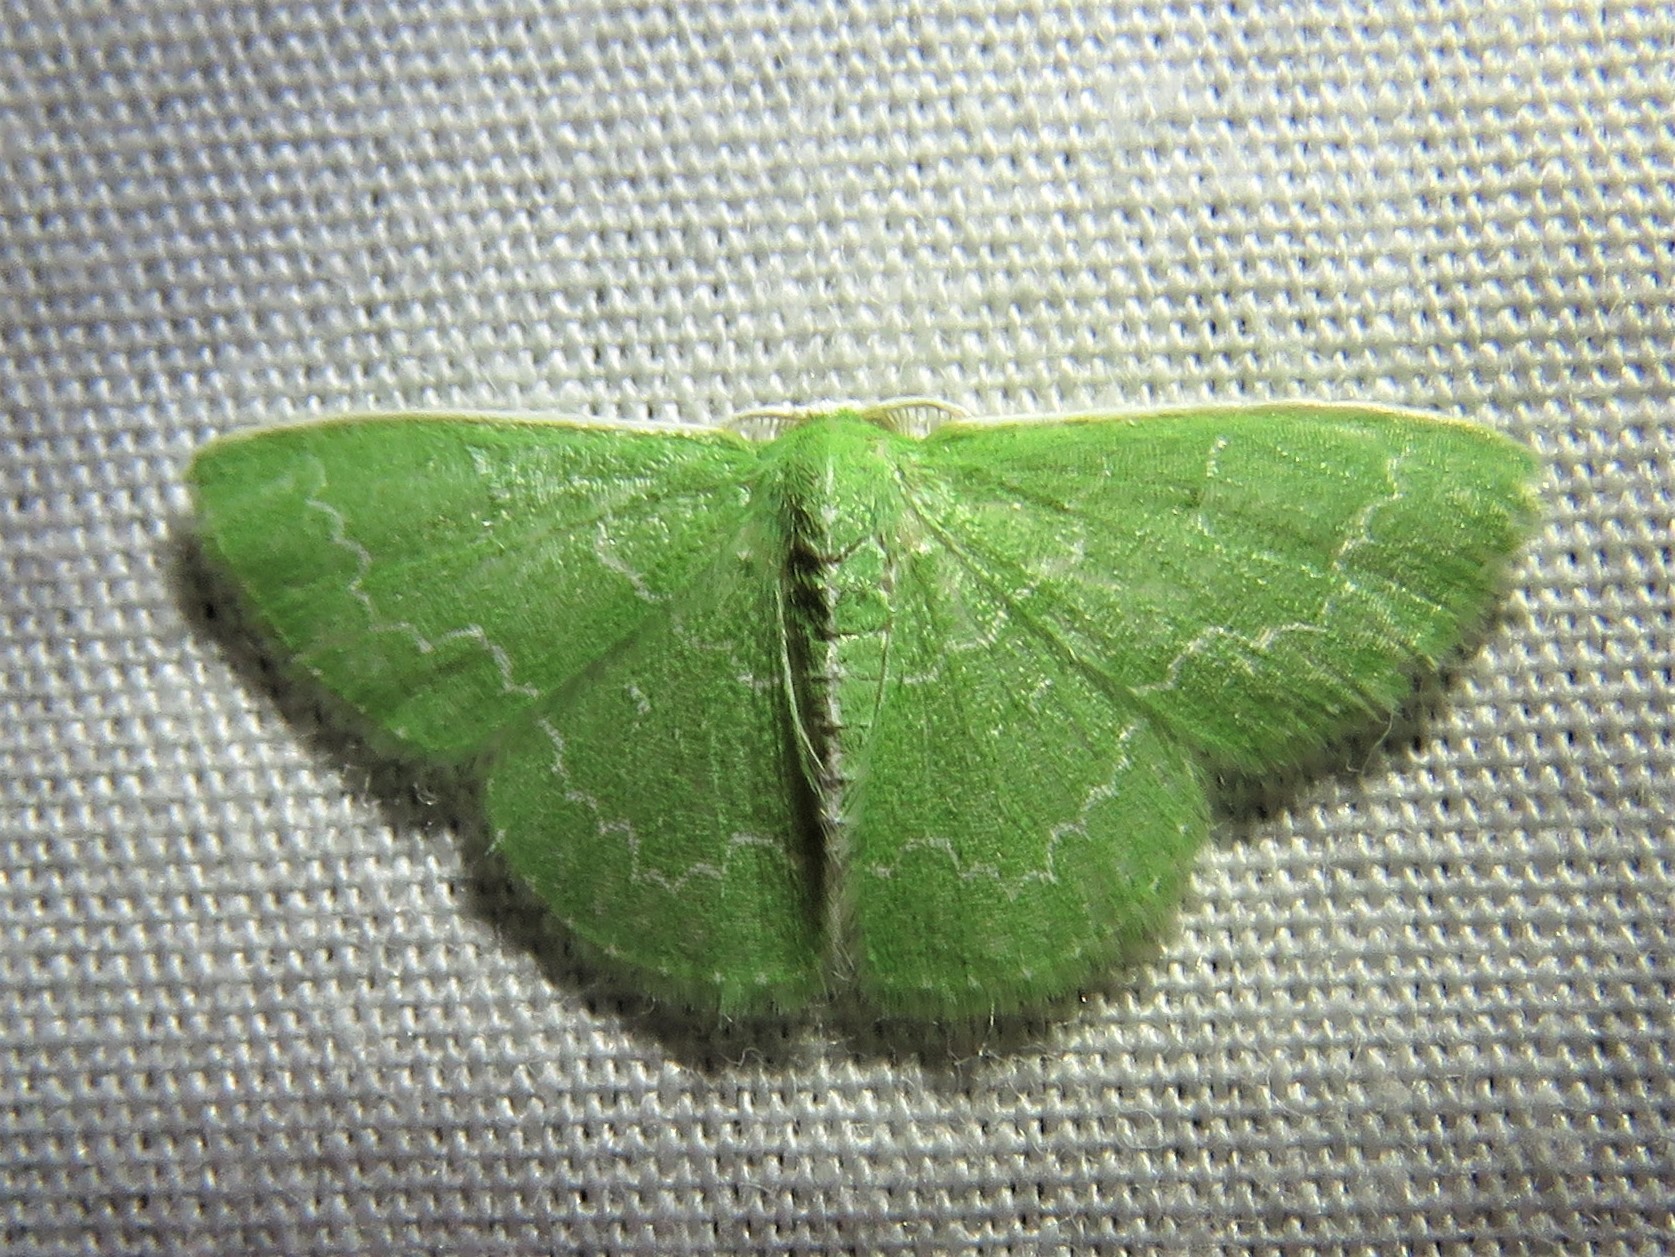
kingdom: Animalia
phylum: Arthropoda
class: Insecta
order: Lepidoptera
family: Geometridae
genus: Synchlora
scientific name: Synchlora frondaria
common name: Southern emerald
